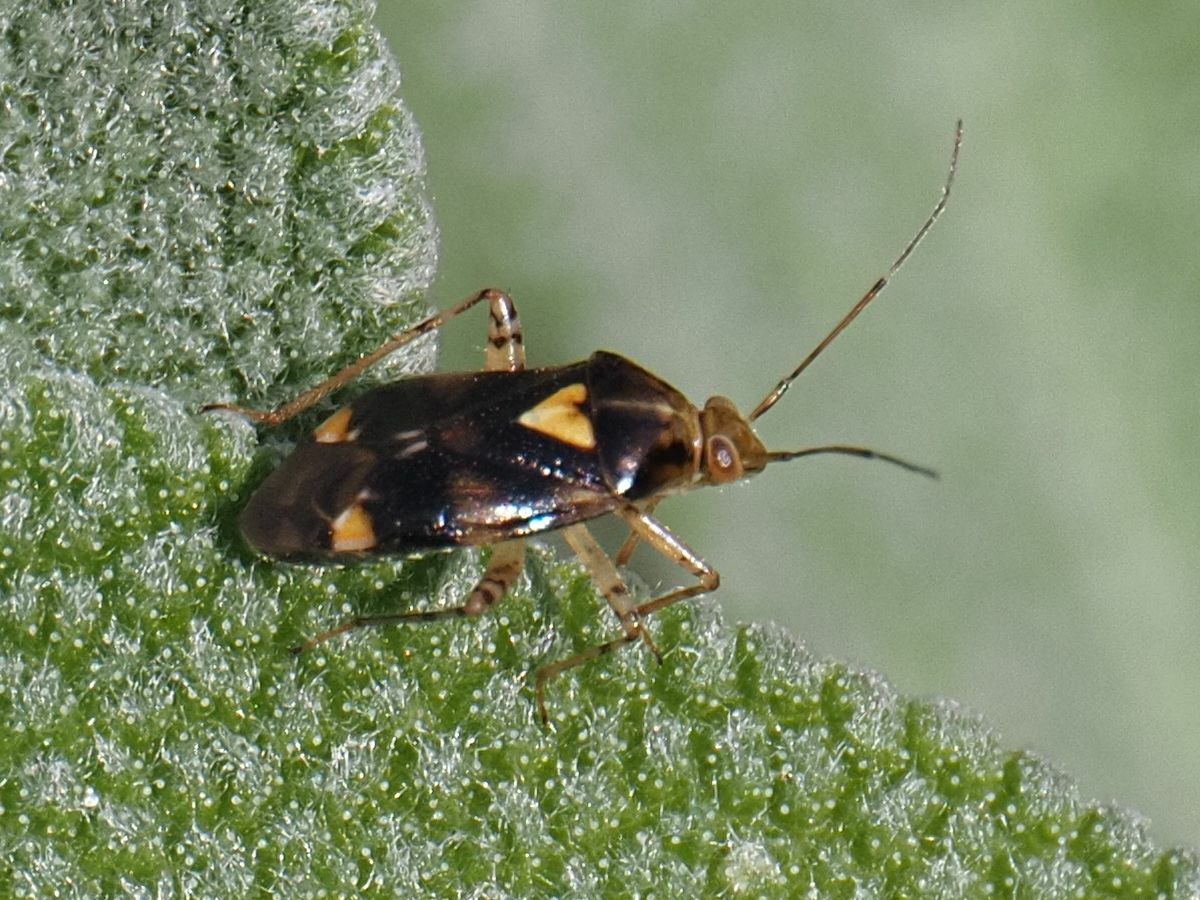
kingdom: Animalia
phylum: Arthropoda
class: Insecta
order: Hemiptera
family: Miridae
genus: Liocoris
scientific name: Liocoris tripustulatus
